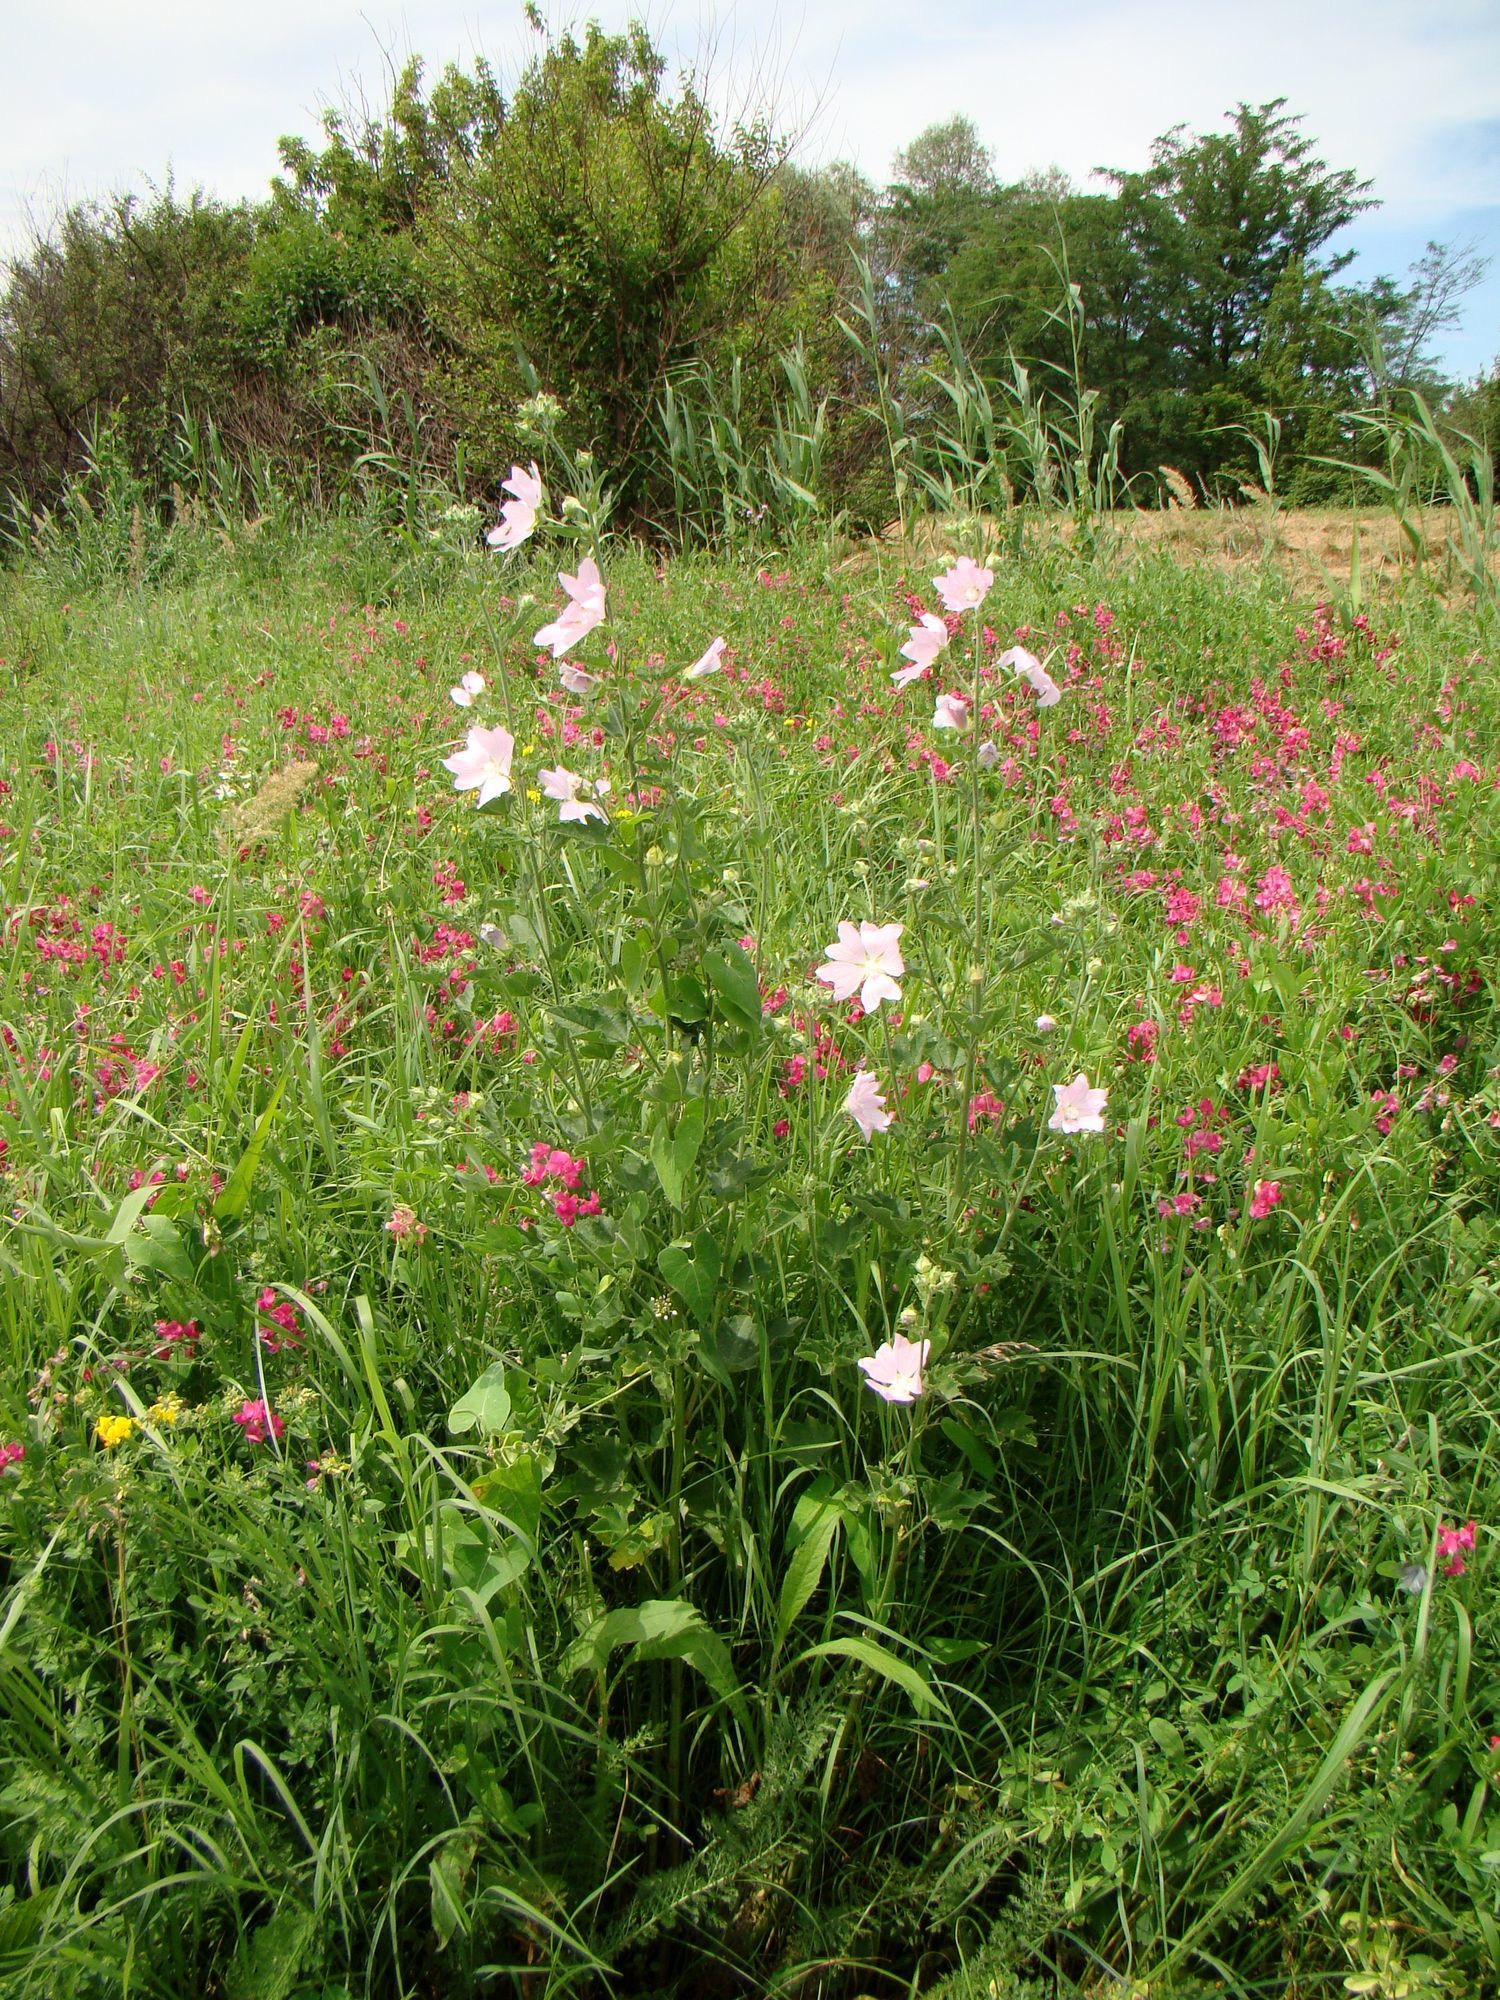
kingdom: Plantae
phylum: Tracheophyta
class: Magnoliopsida
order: Malvales
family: Malvaceae
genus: Malva
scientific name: Malva thuringiaca
